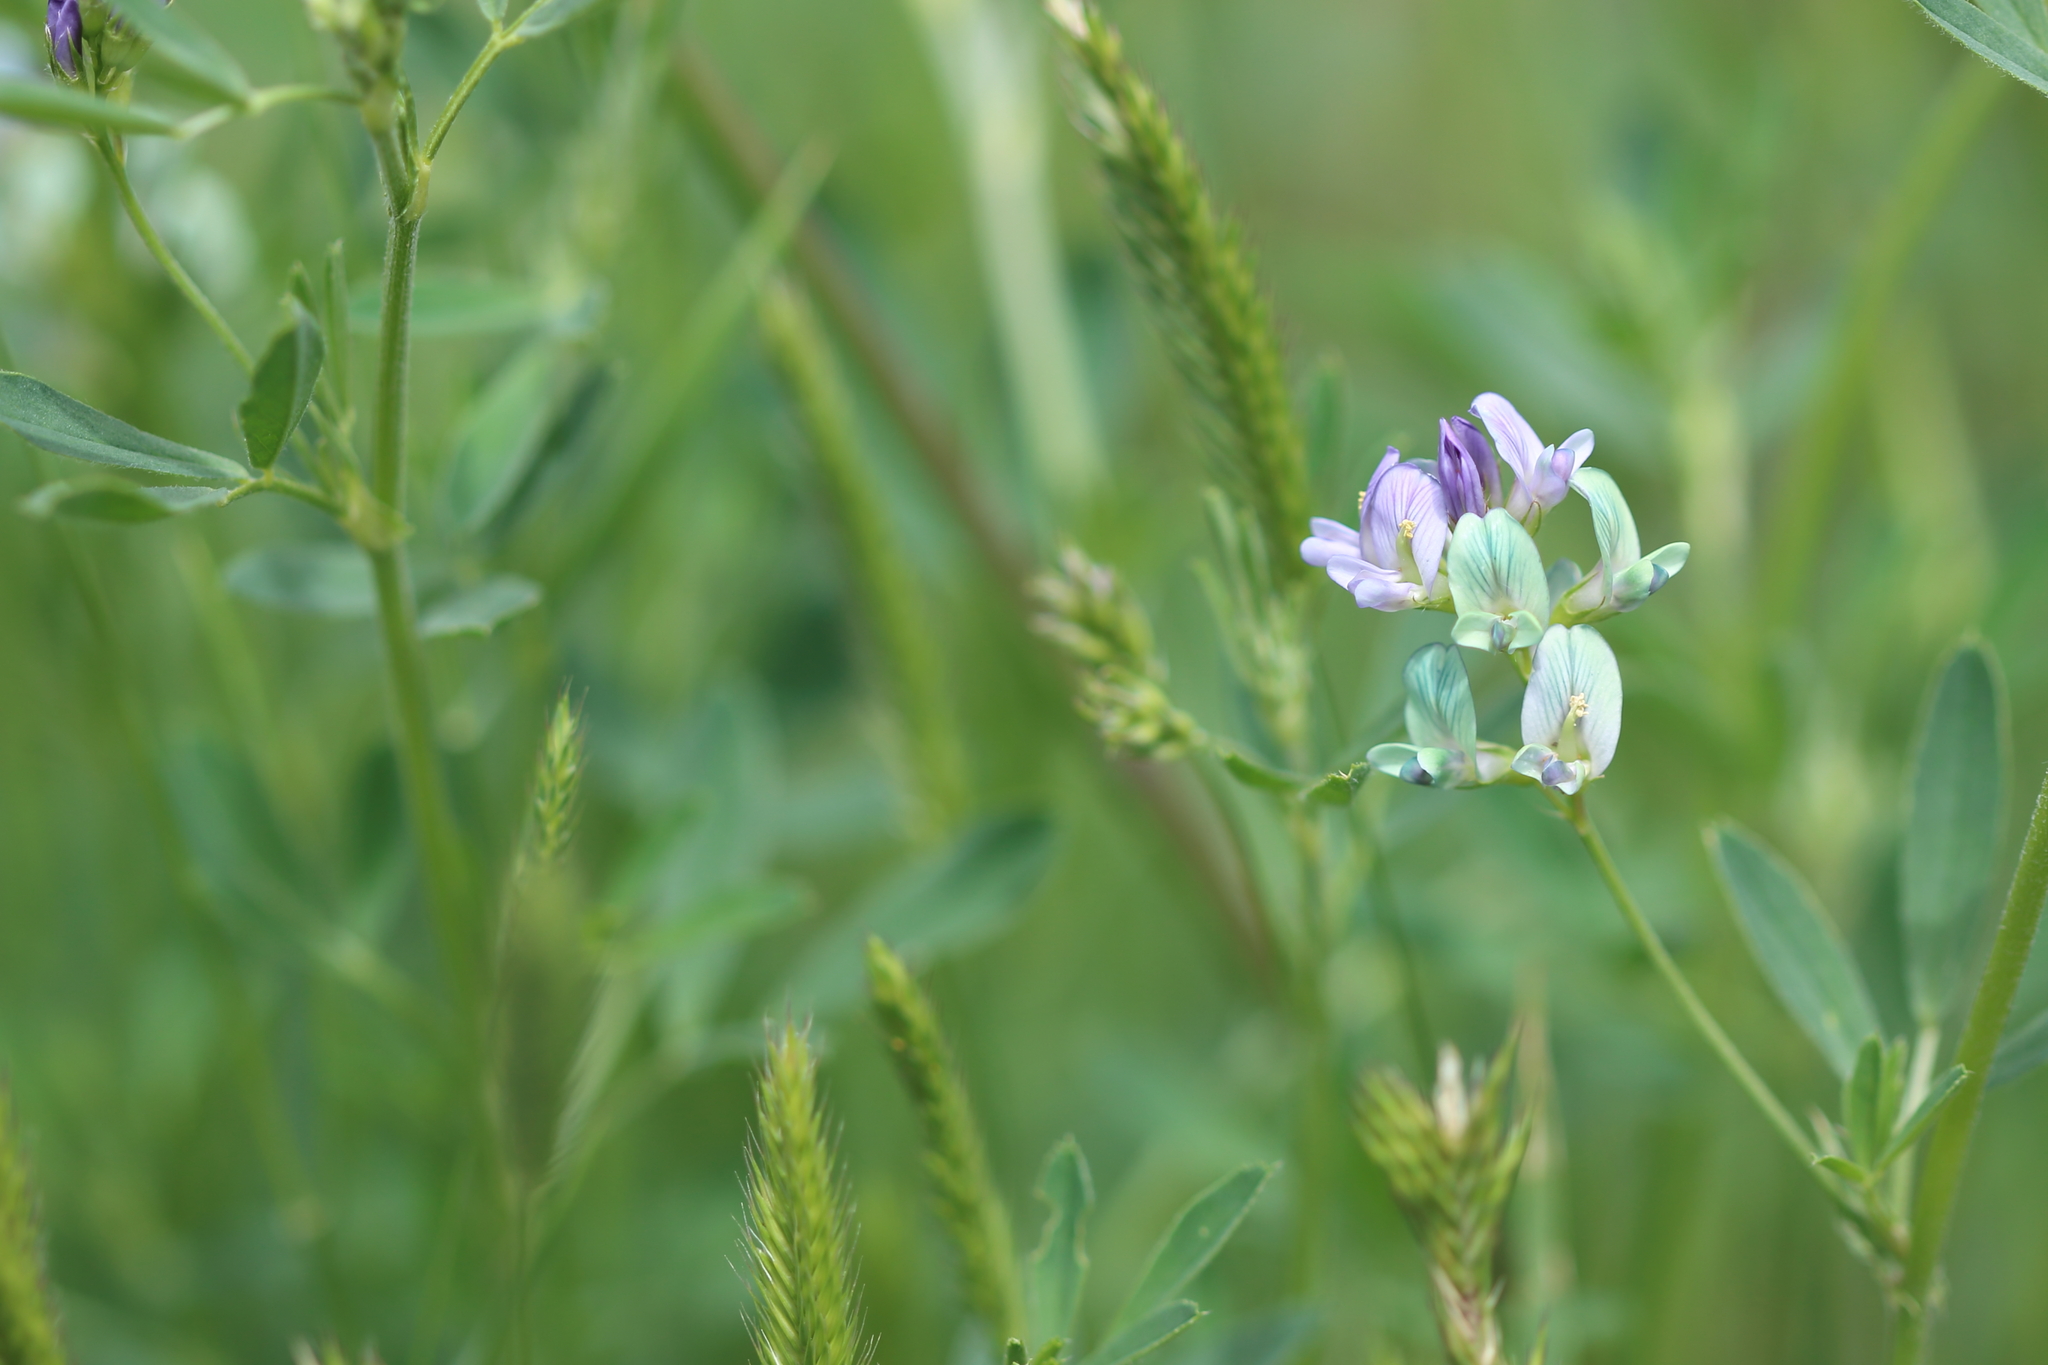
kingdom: Plantae
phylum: Tracheophyta
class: Magnoliopsida
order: Fabales
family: Fabaceae
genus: Medicago
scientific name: Medicago sativa
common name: Alfalfa
